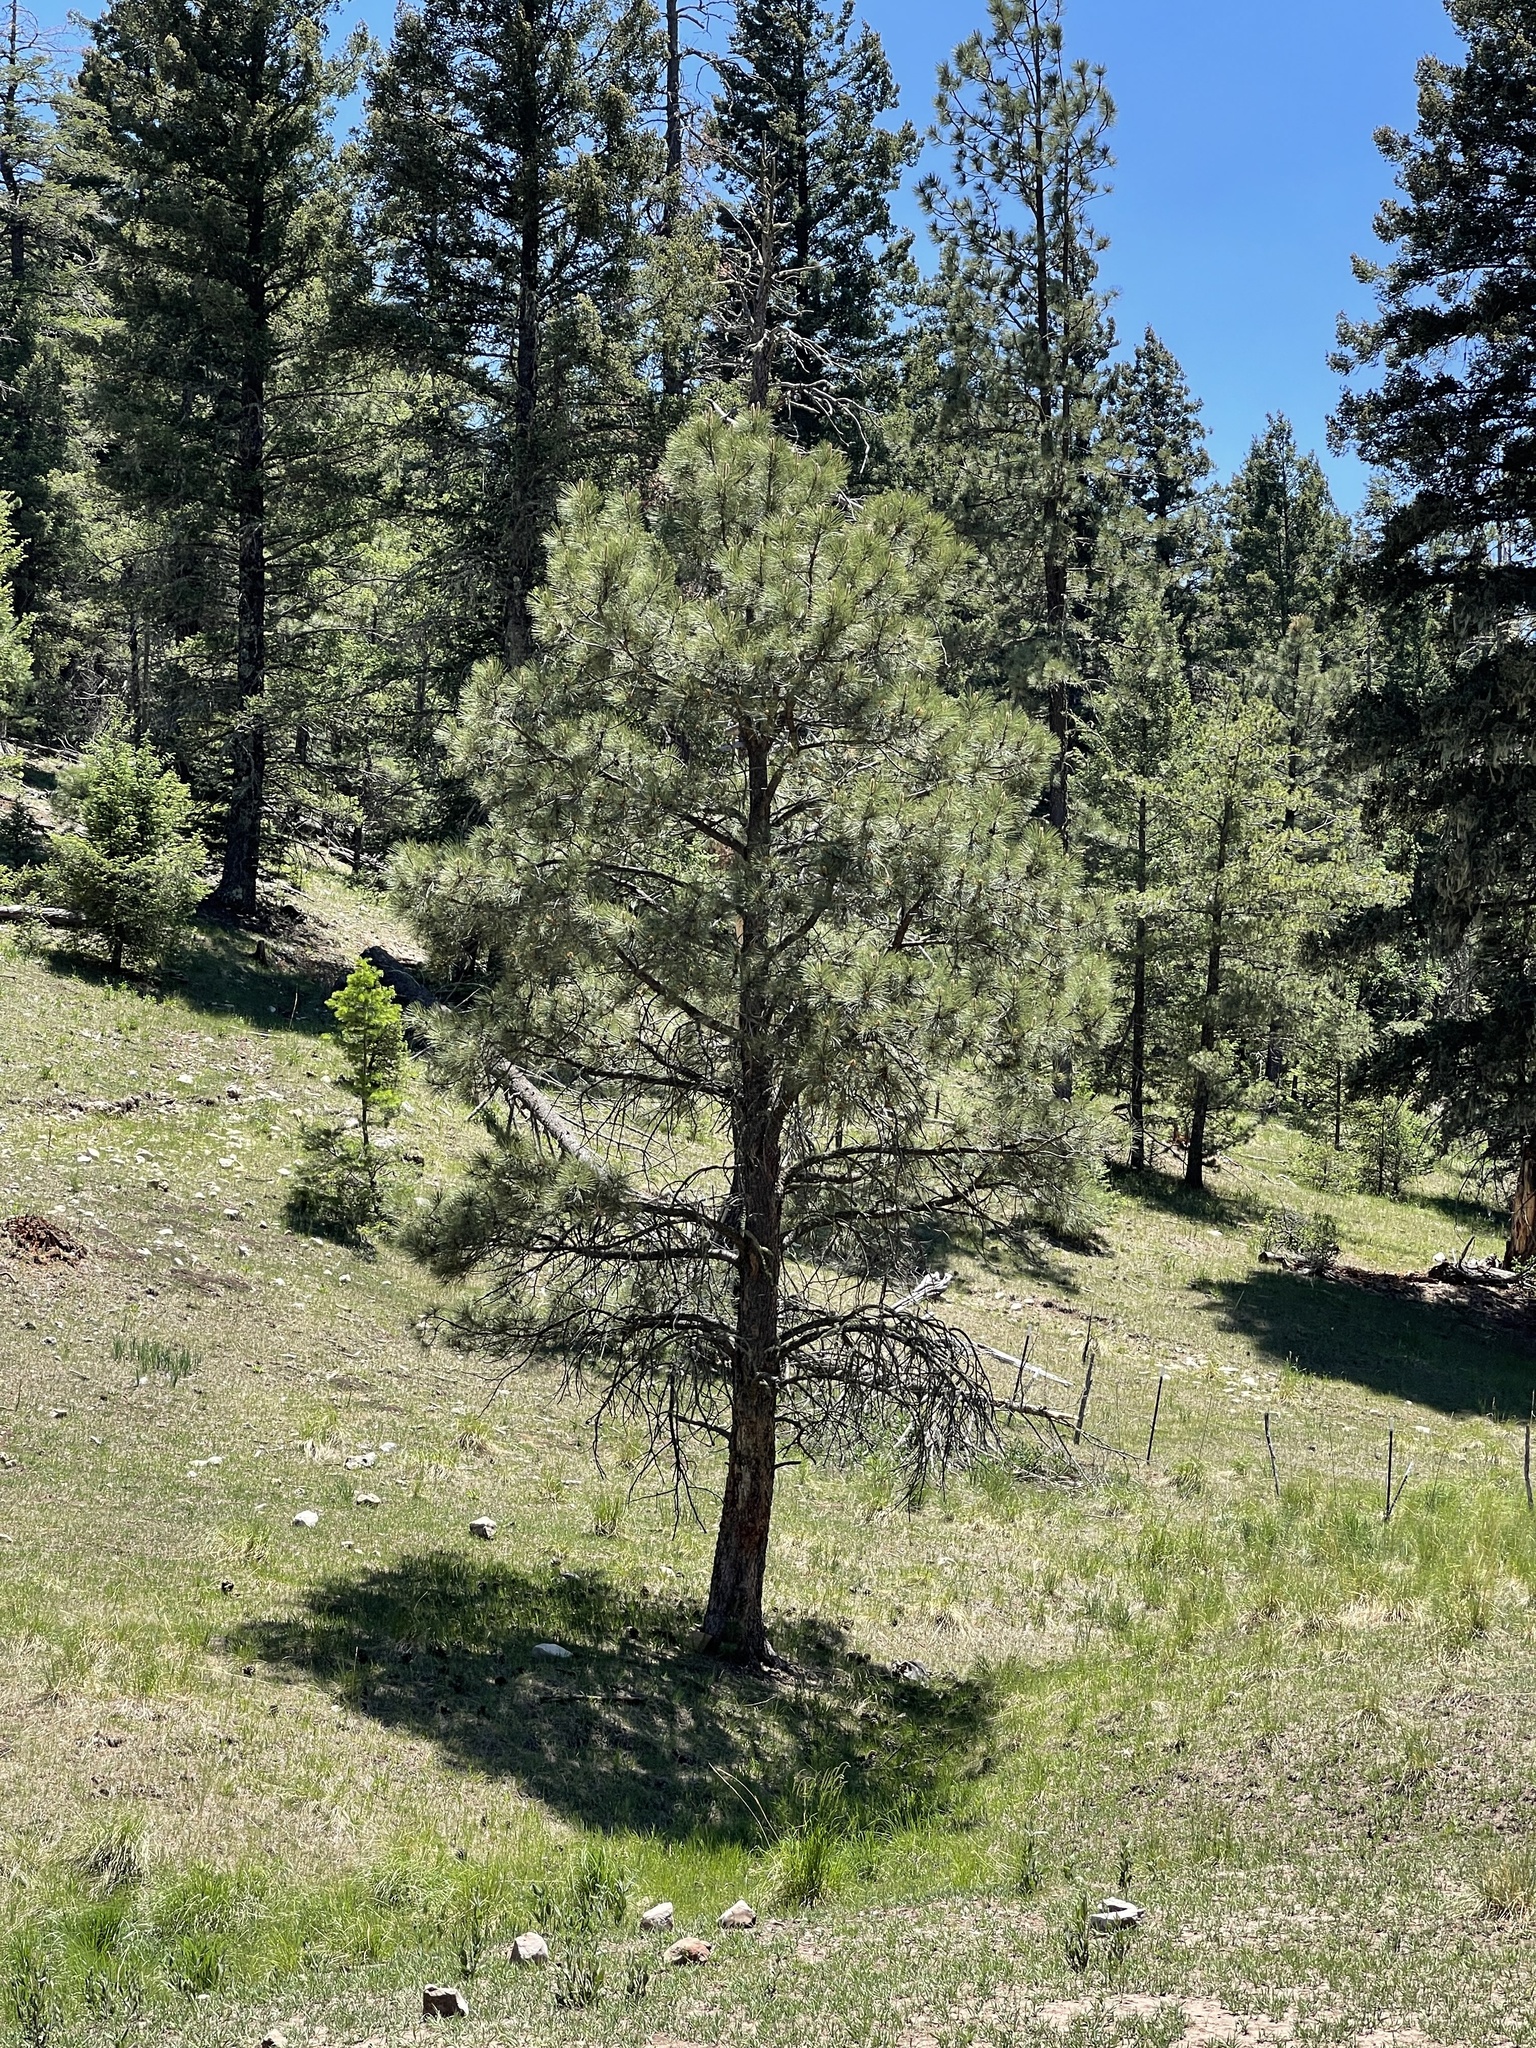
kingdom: Plantae
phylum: Tracheophyta
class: Pinopsida
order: Pinales
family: Pinaceae
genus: Pinus
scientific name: Pinus ponderosa
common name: Western yellow-pine
